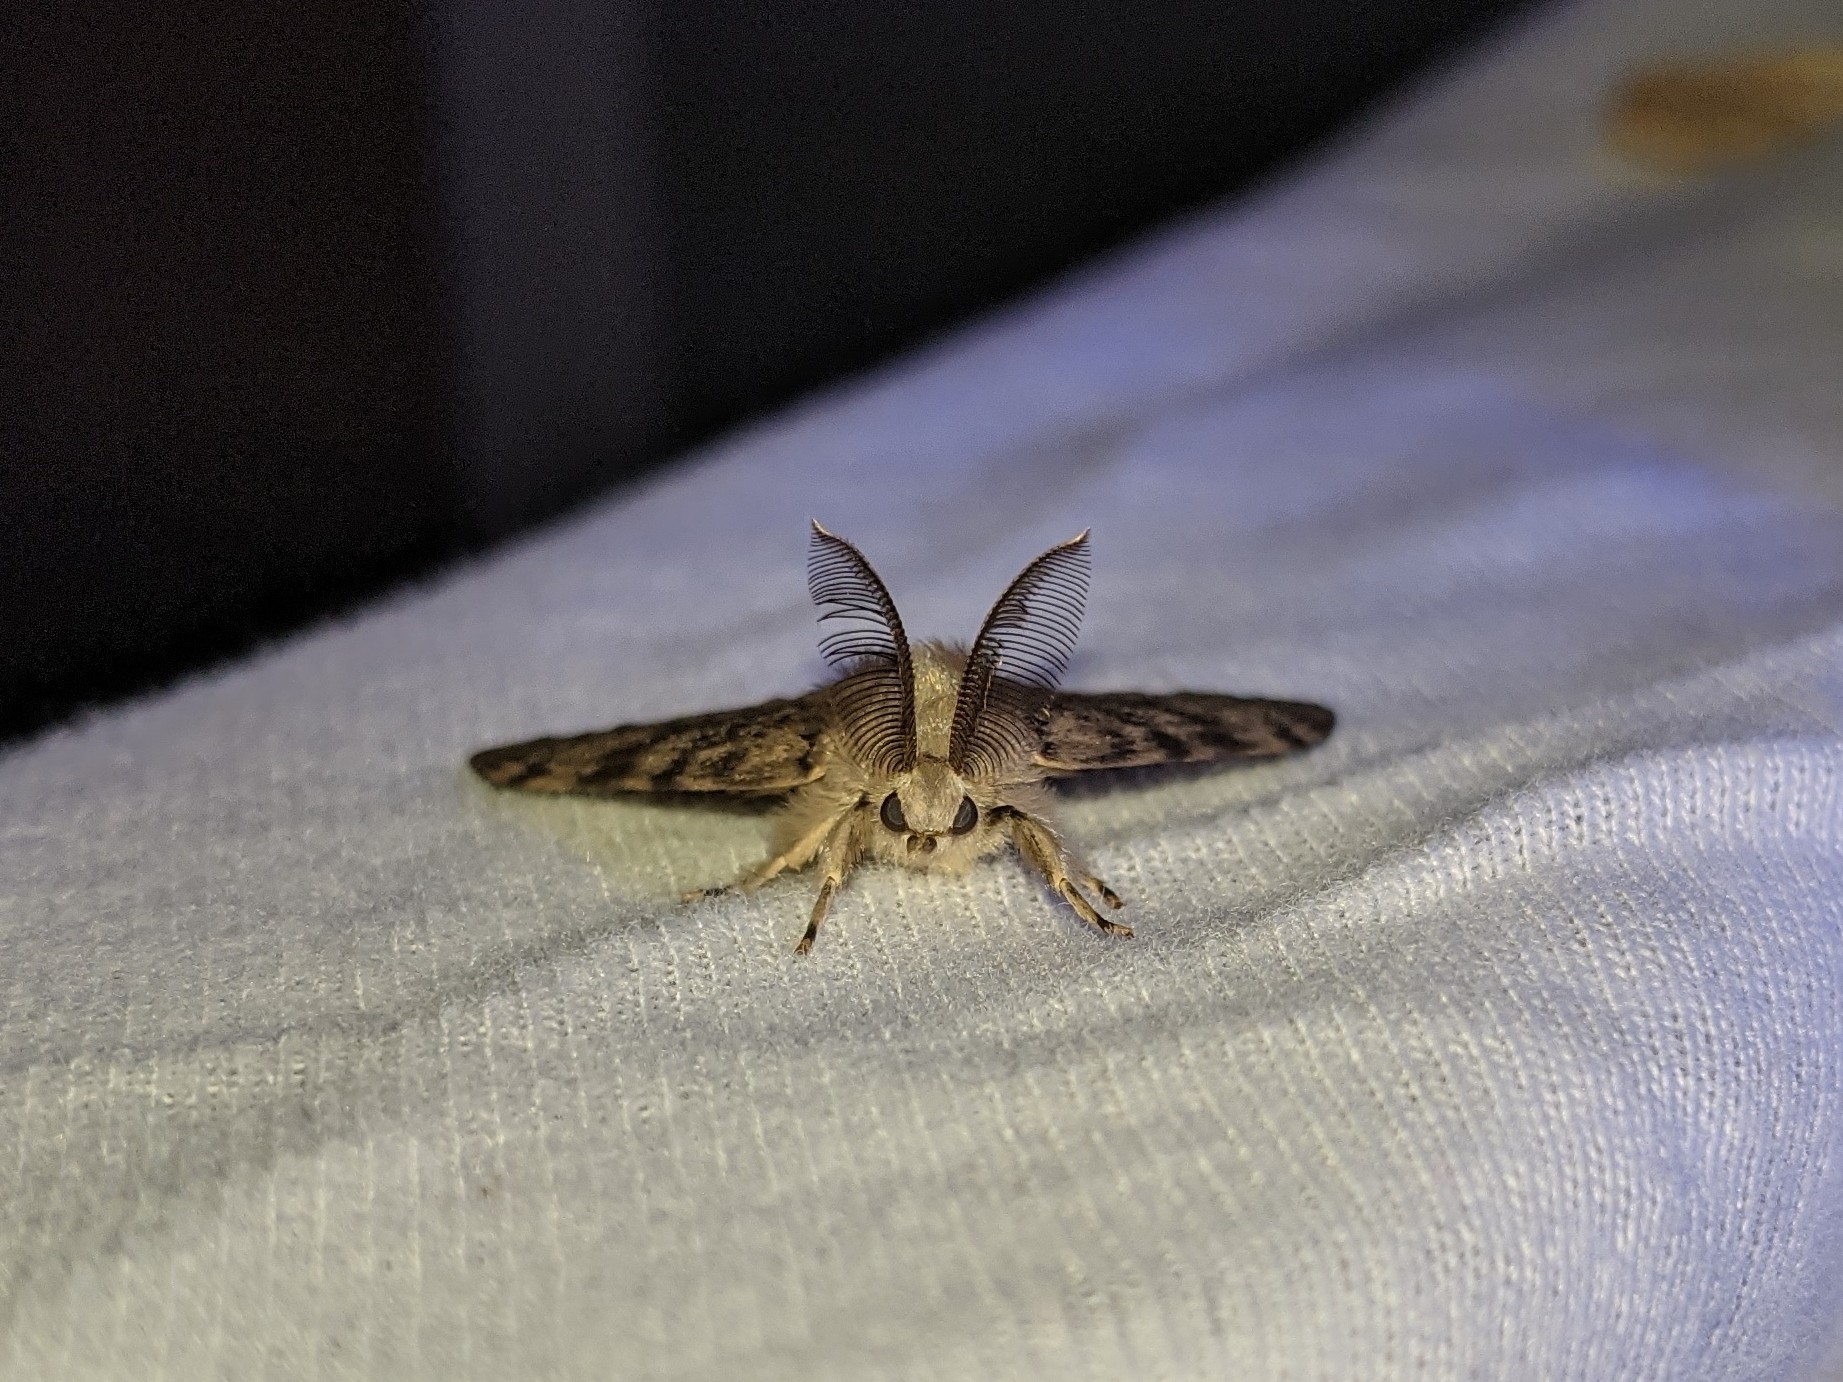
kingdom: Animalia
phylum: Arthropoda
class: Insecta
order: Lepidoptera
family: Erebidae
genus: Lymantria
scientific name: Lymantria dispar
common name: Gypsy moth
